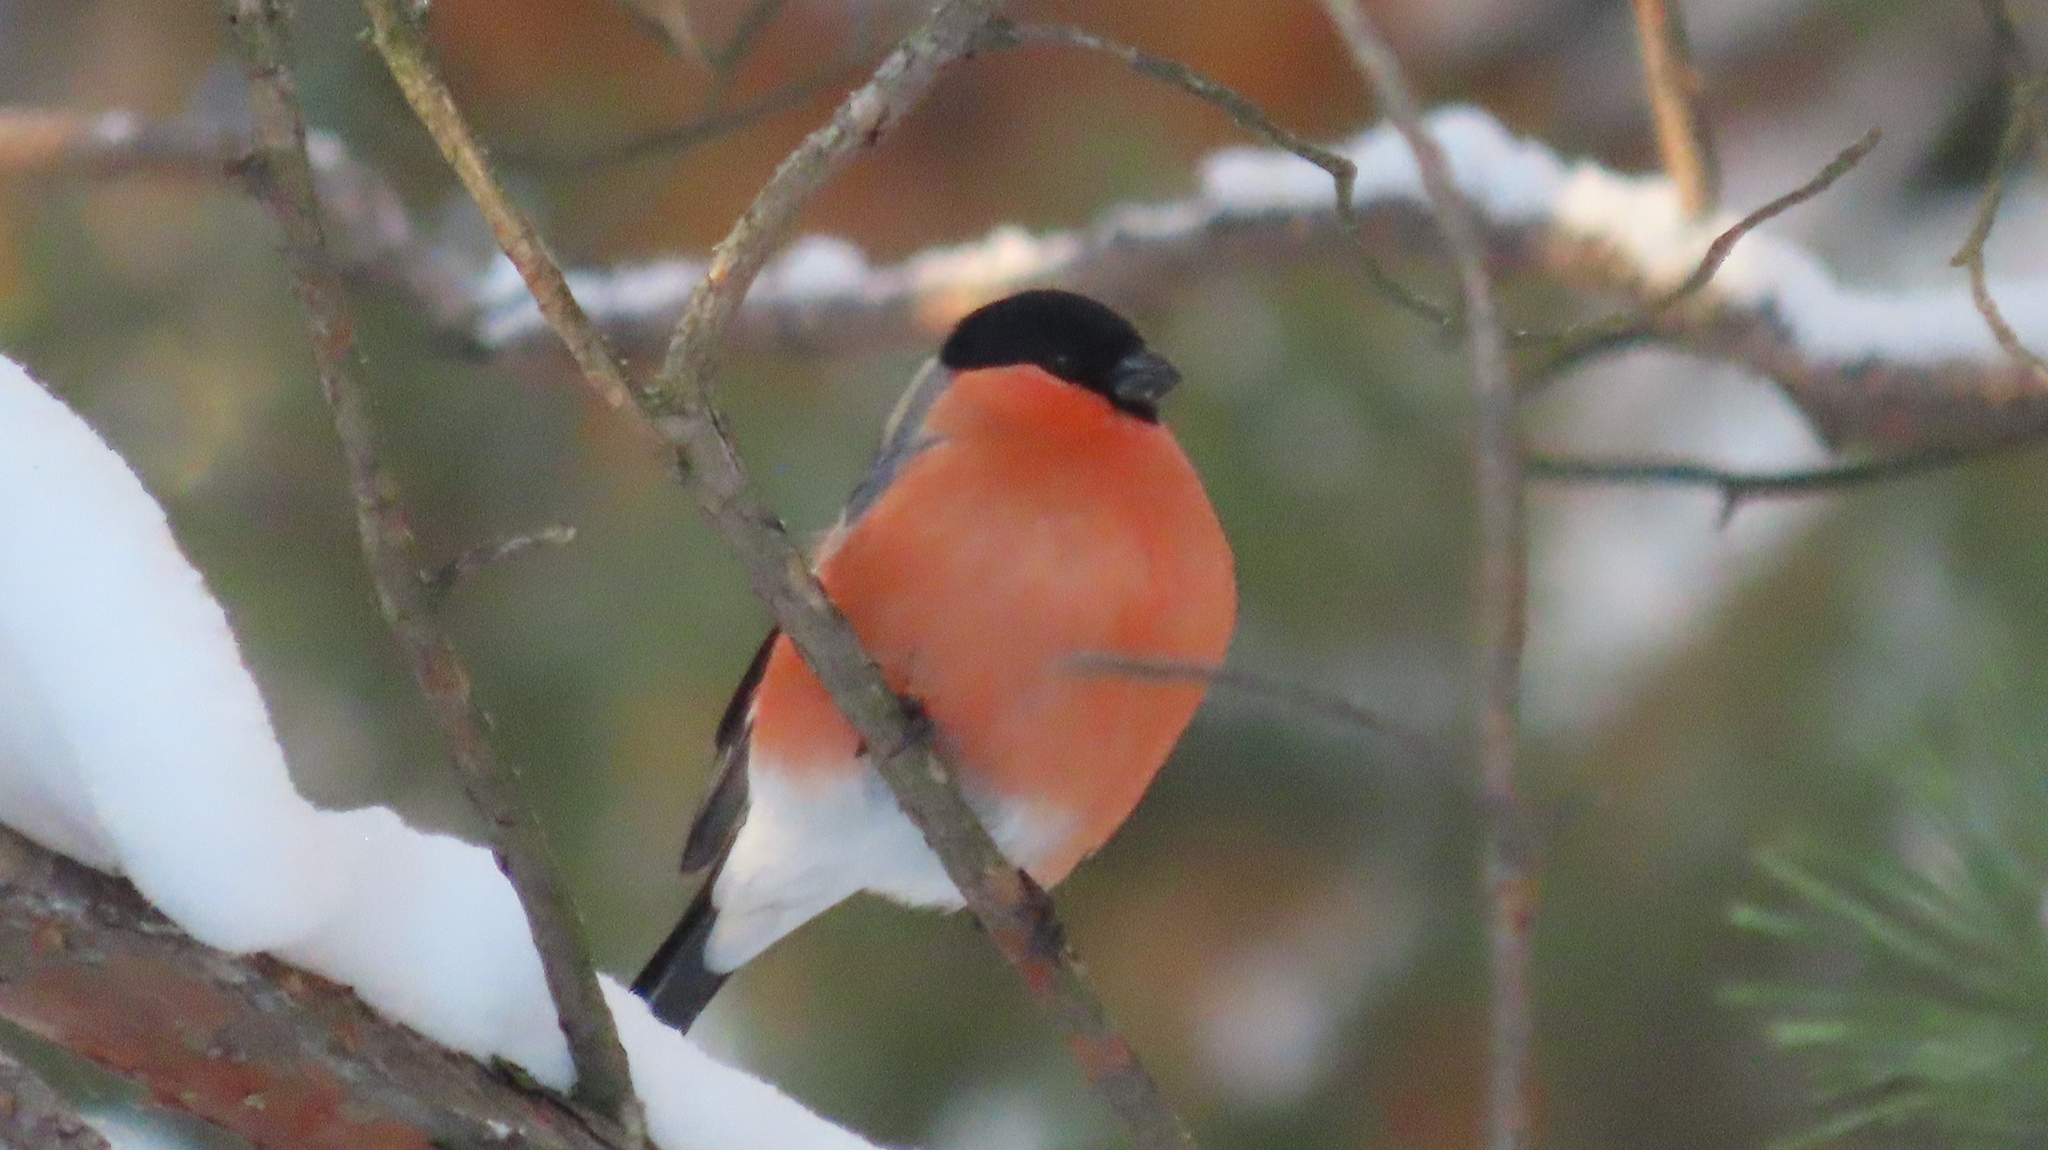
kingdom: Animalia
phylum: Chordata
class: Aves
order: Passeriformes
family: Fringillidae
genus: Pyrrhula
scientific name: Pyrrhula pyrrhula
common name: Eurasian bullfinch
